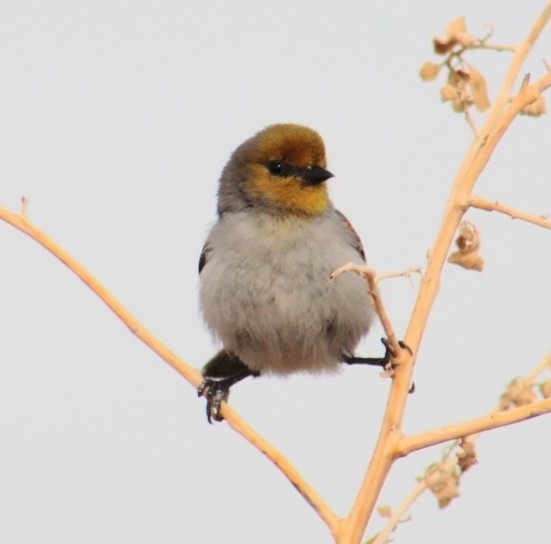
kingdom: Animalia
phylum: Chordata
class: Aves
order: Passeriformes
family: Remizidae
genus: Auriparus
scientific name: Auriparus flaviceps
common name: Verdin
